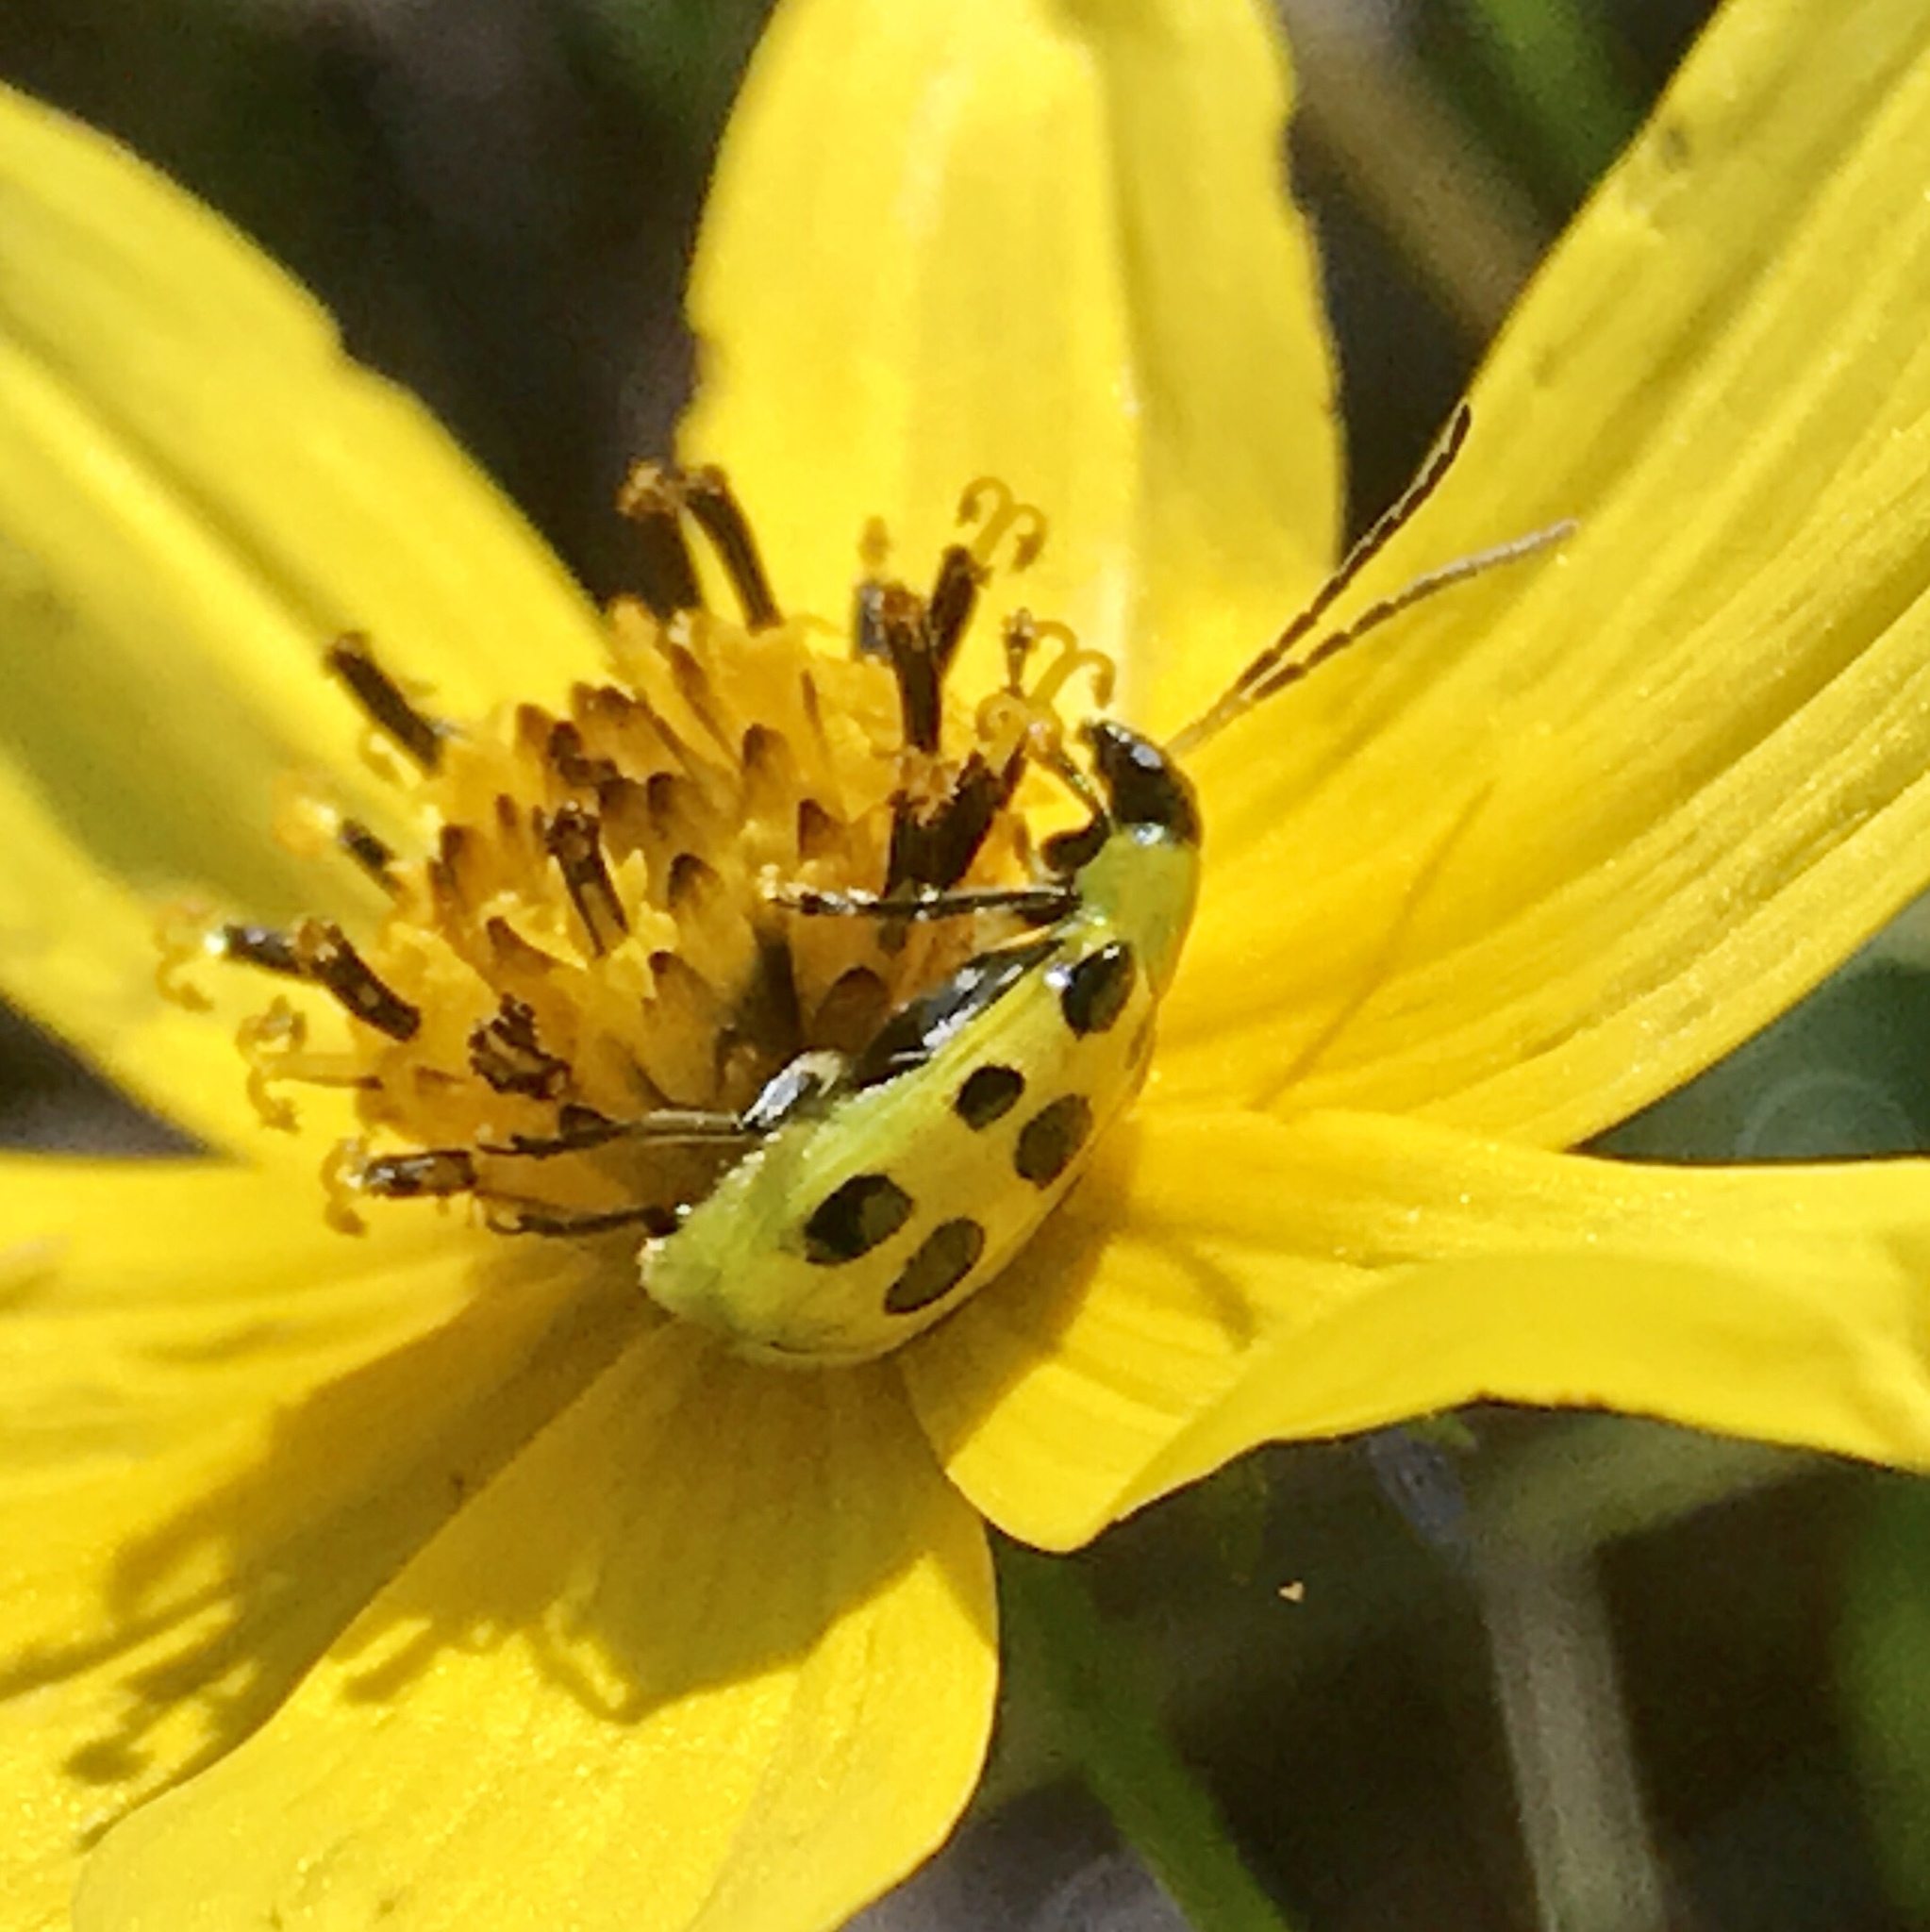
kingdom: Animalia
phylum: Arthropoda
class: Insecta
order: Coleoptera
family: Chrysomelidae
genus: Diabrotica
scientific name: Diabrotica undecimpunctata
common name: Spotted cucumber beetle
